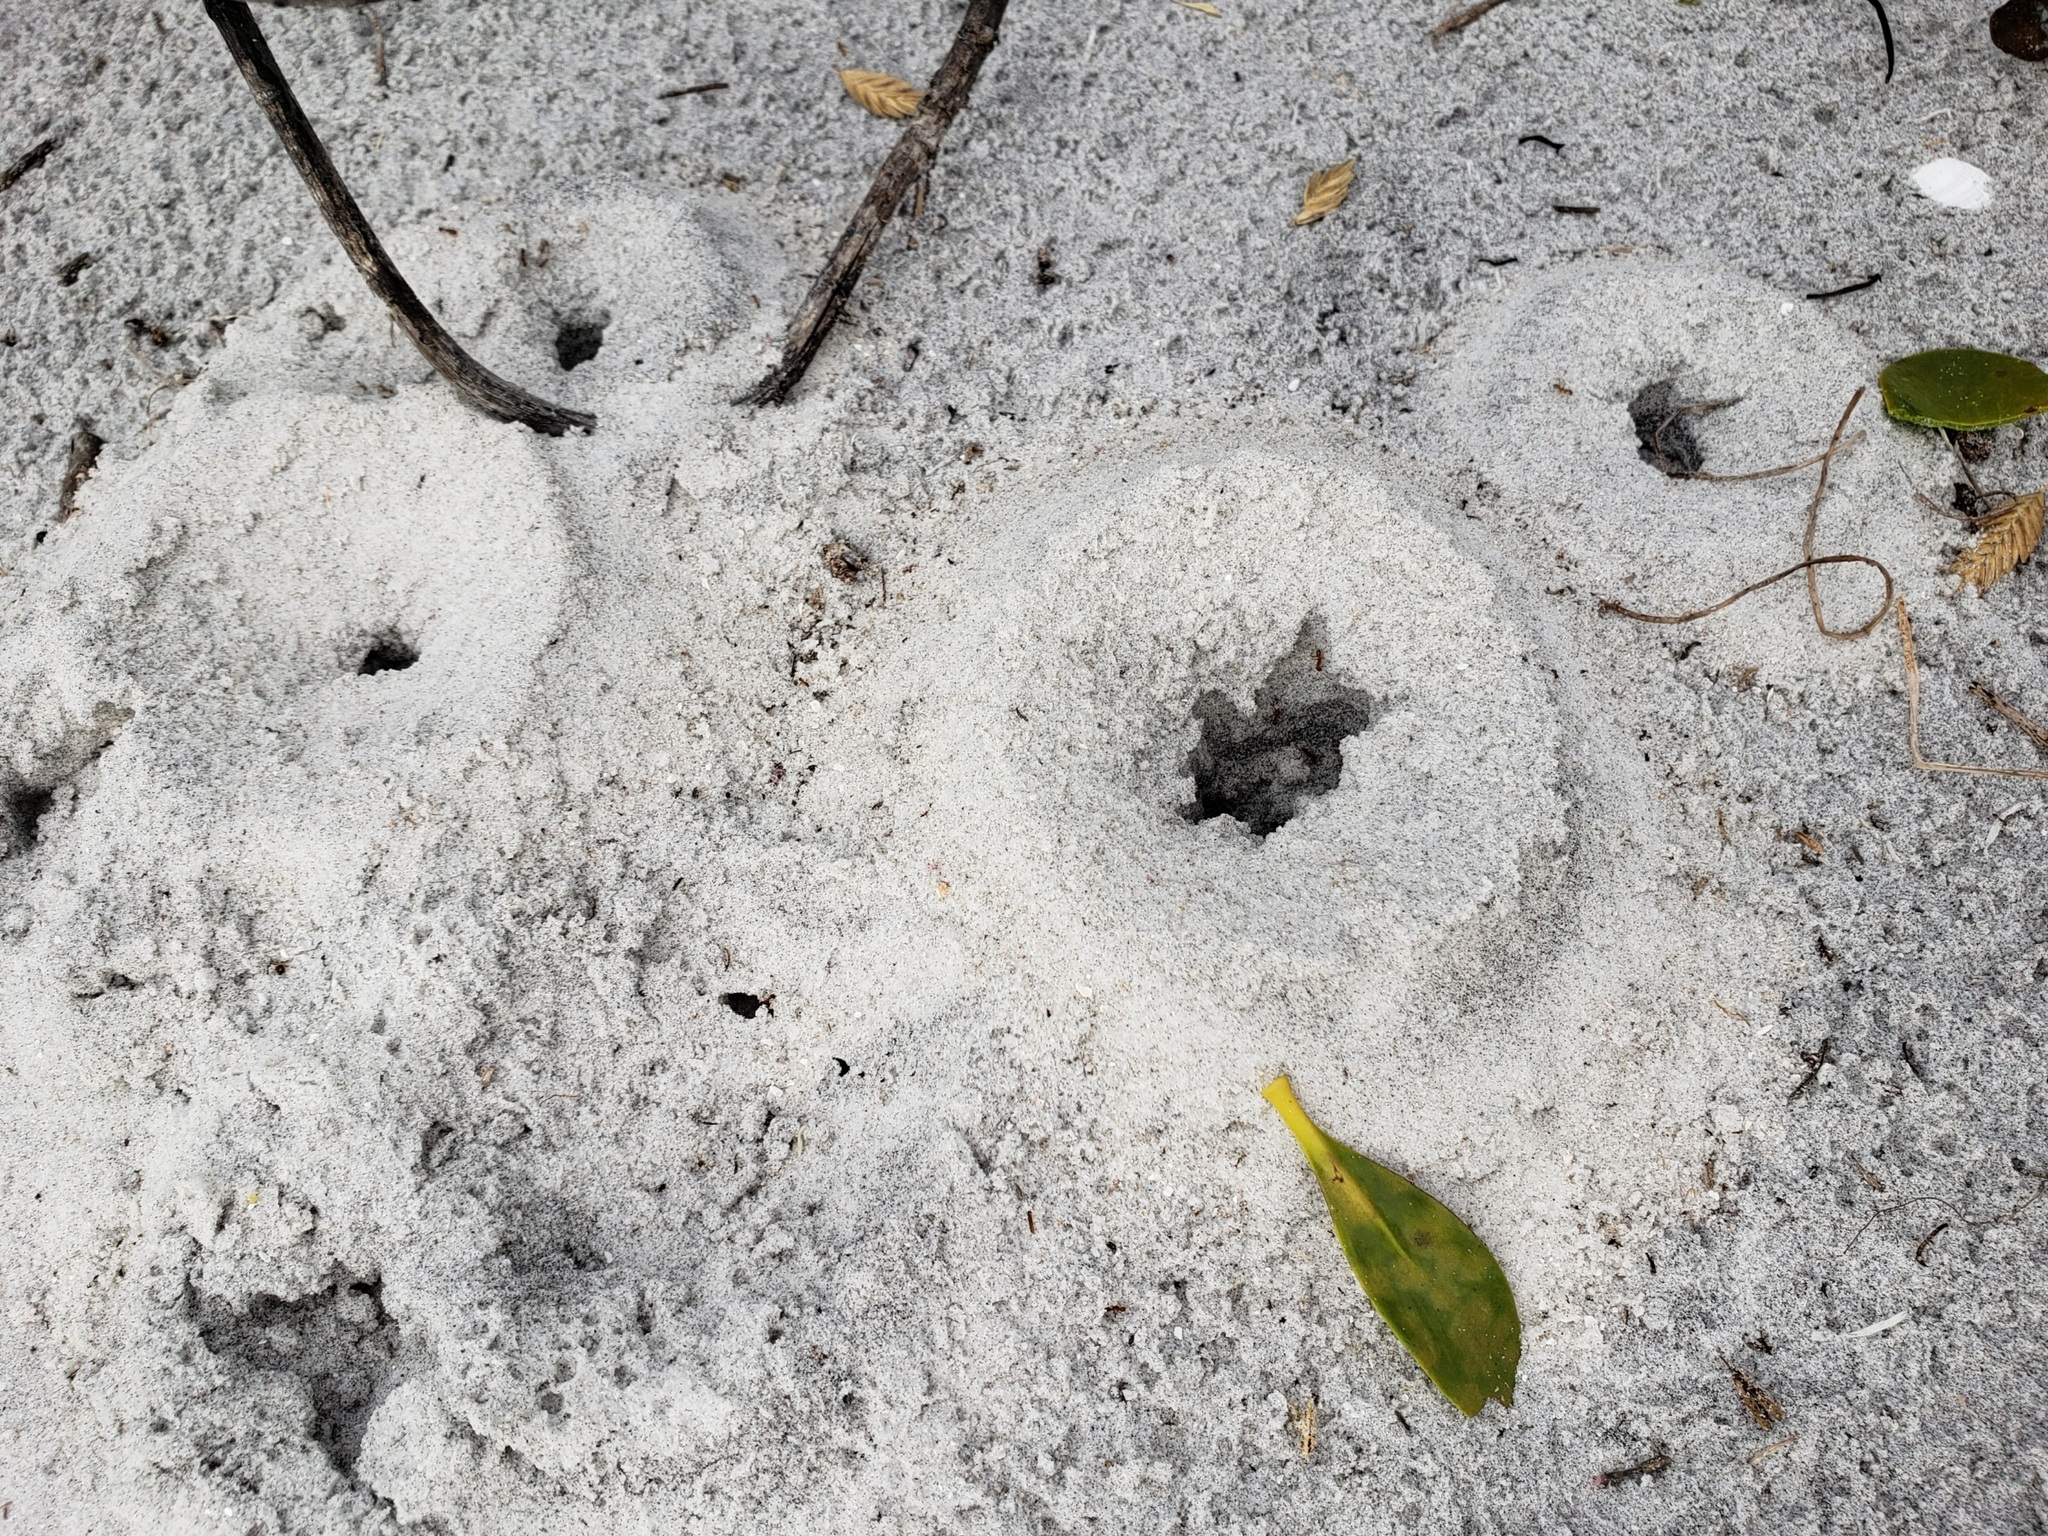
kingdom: Animalia
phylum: Arthropoda
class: Insecta
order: Hymenoptera
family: Formicidae
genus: Dorymyrmex
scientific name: Dorymyrmex bureni
